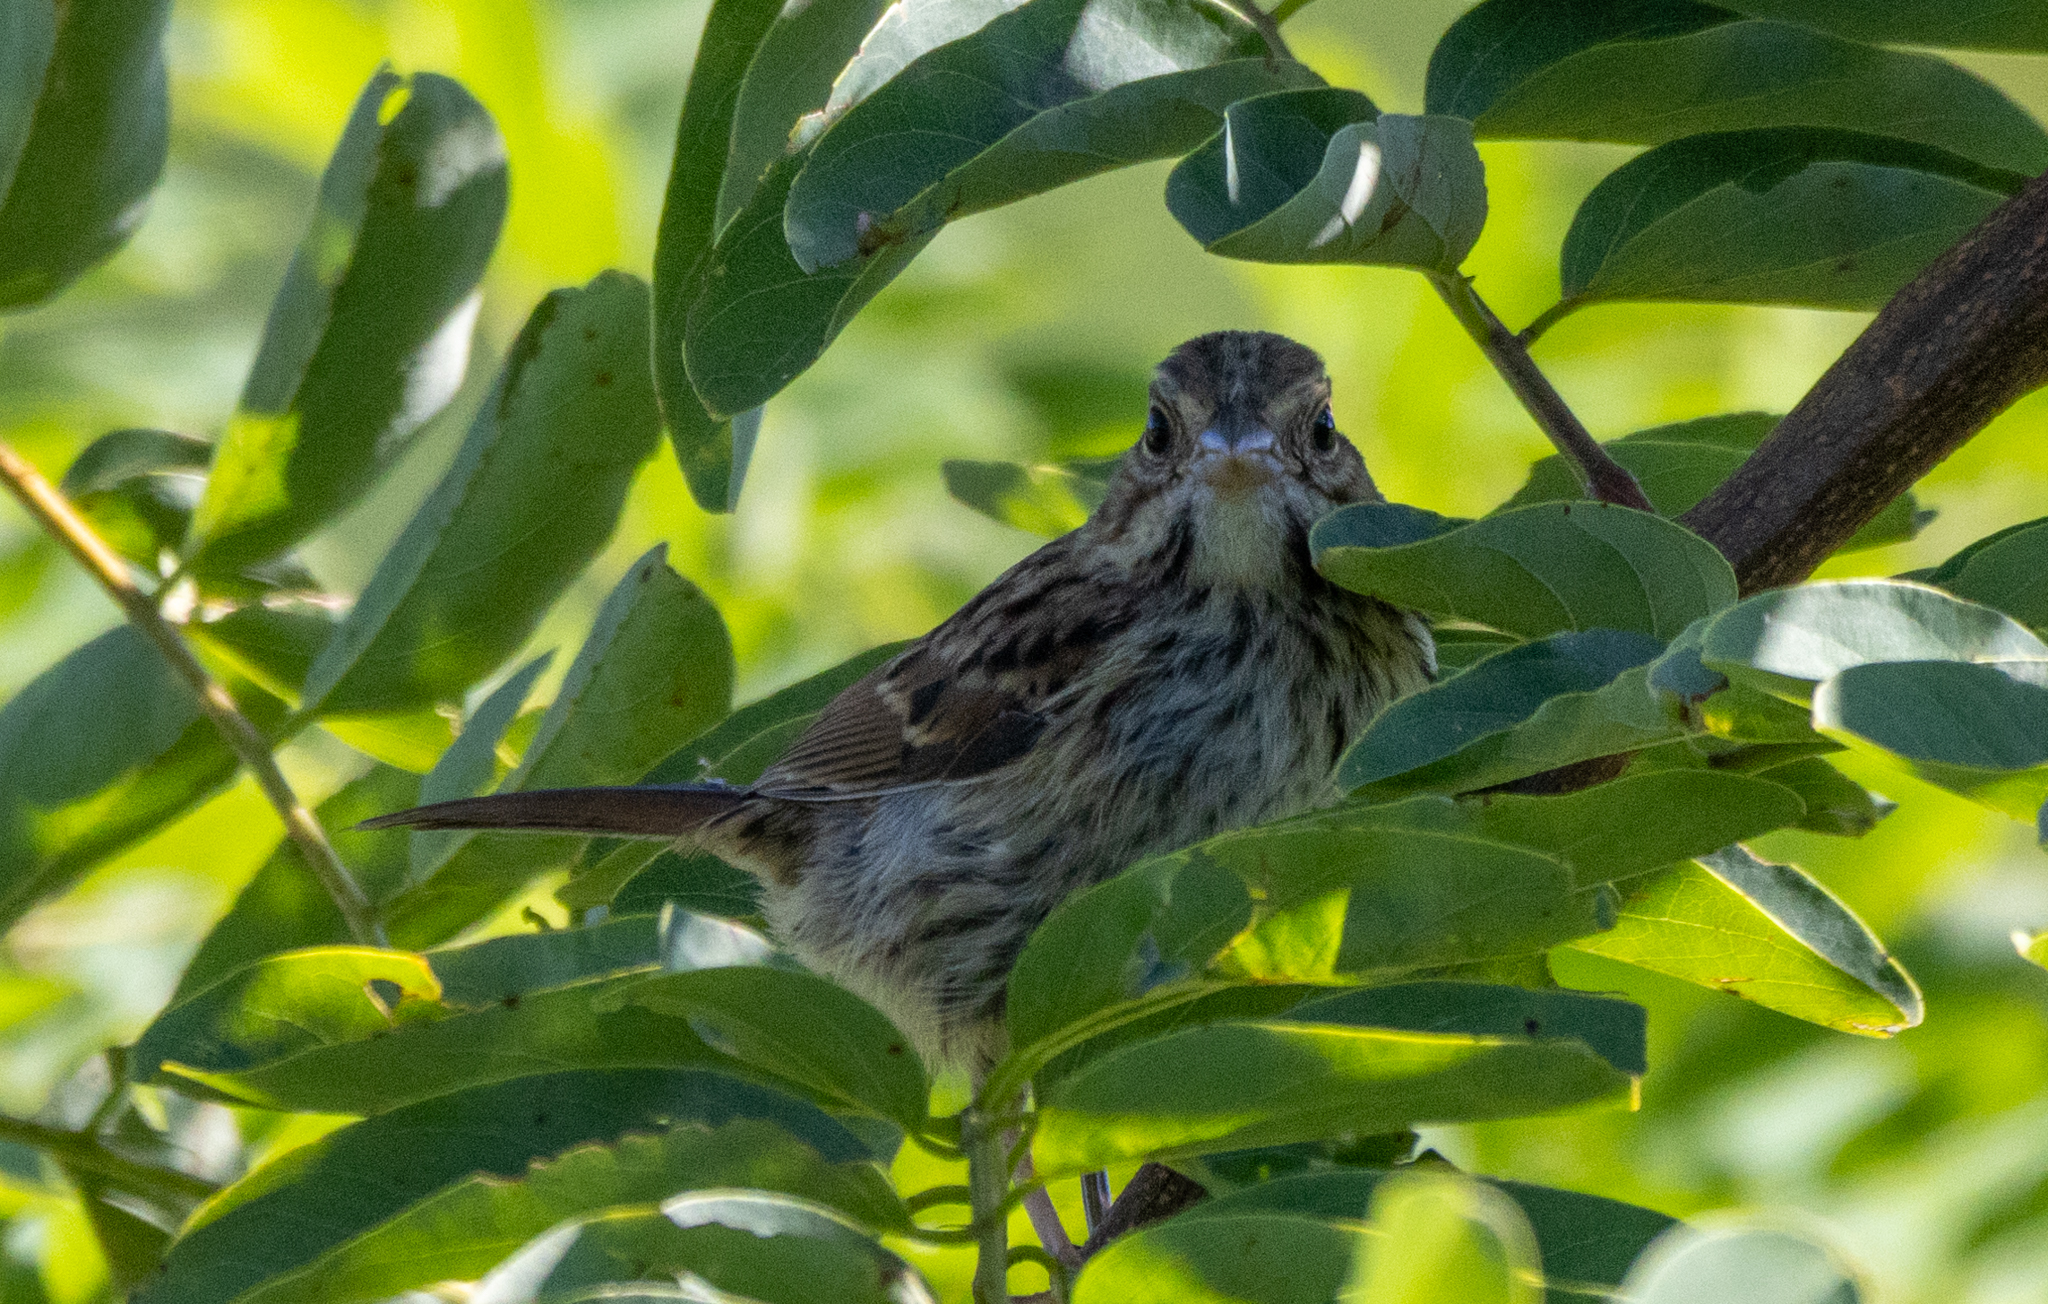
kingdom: Animalia
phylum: Chordata
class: Aves
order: Passeriformes
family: Passerellidae
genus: Melospiza
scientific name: Melospiza melodia
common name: Song sparrow
